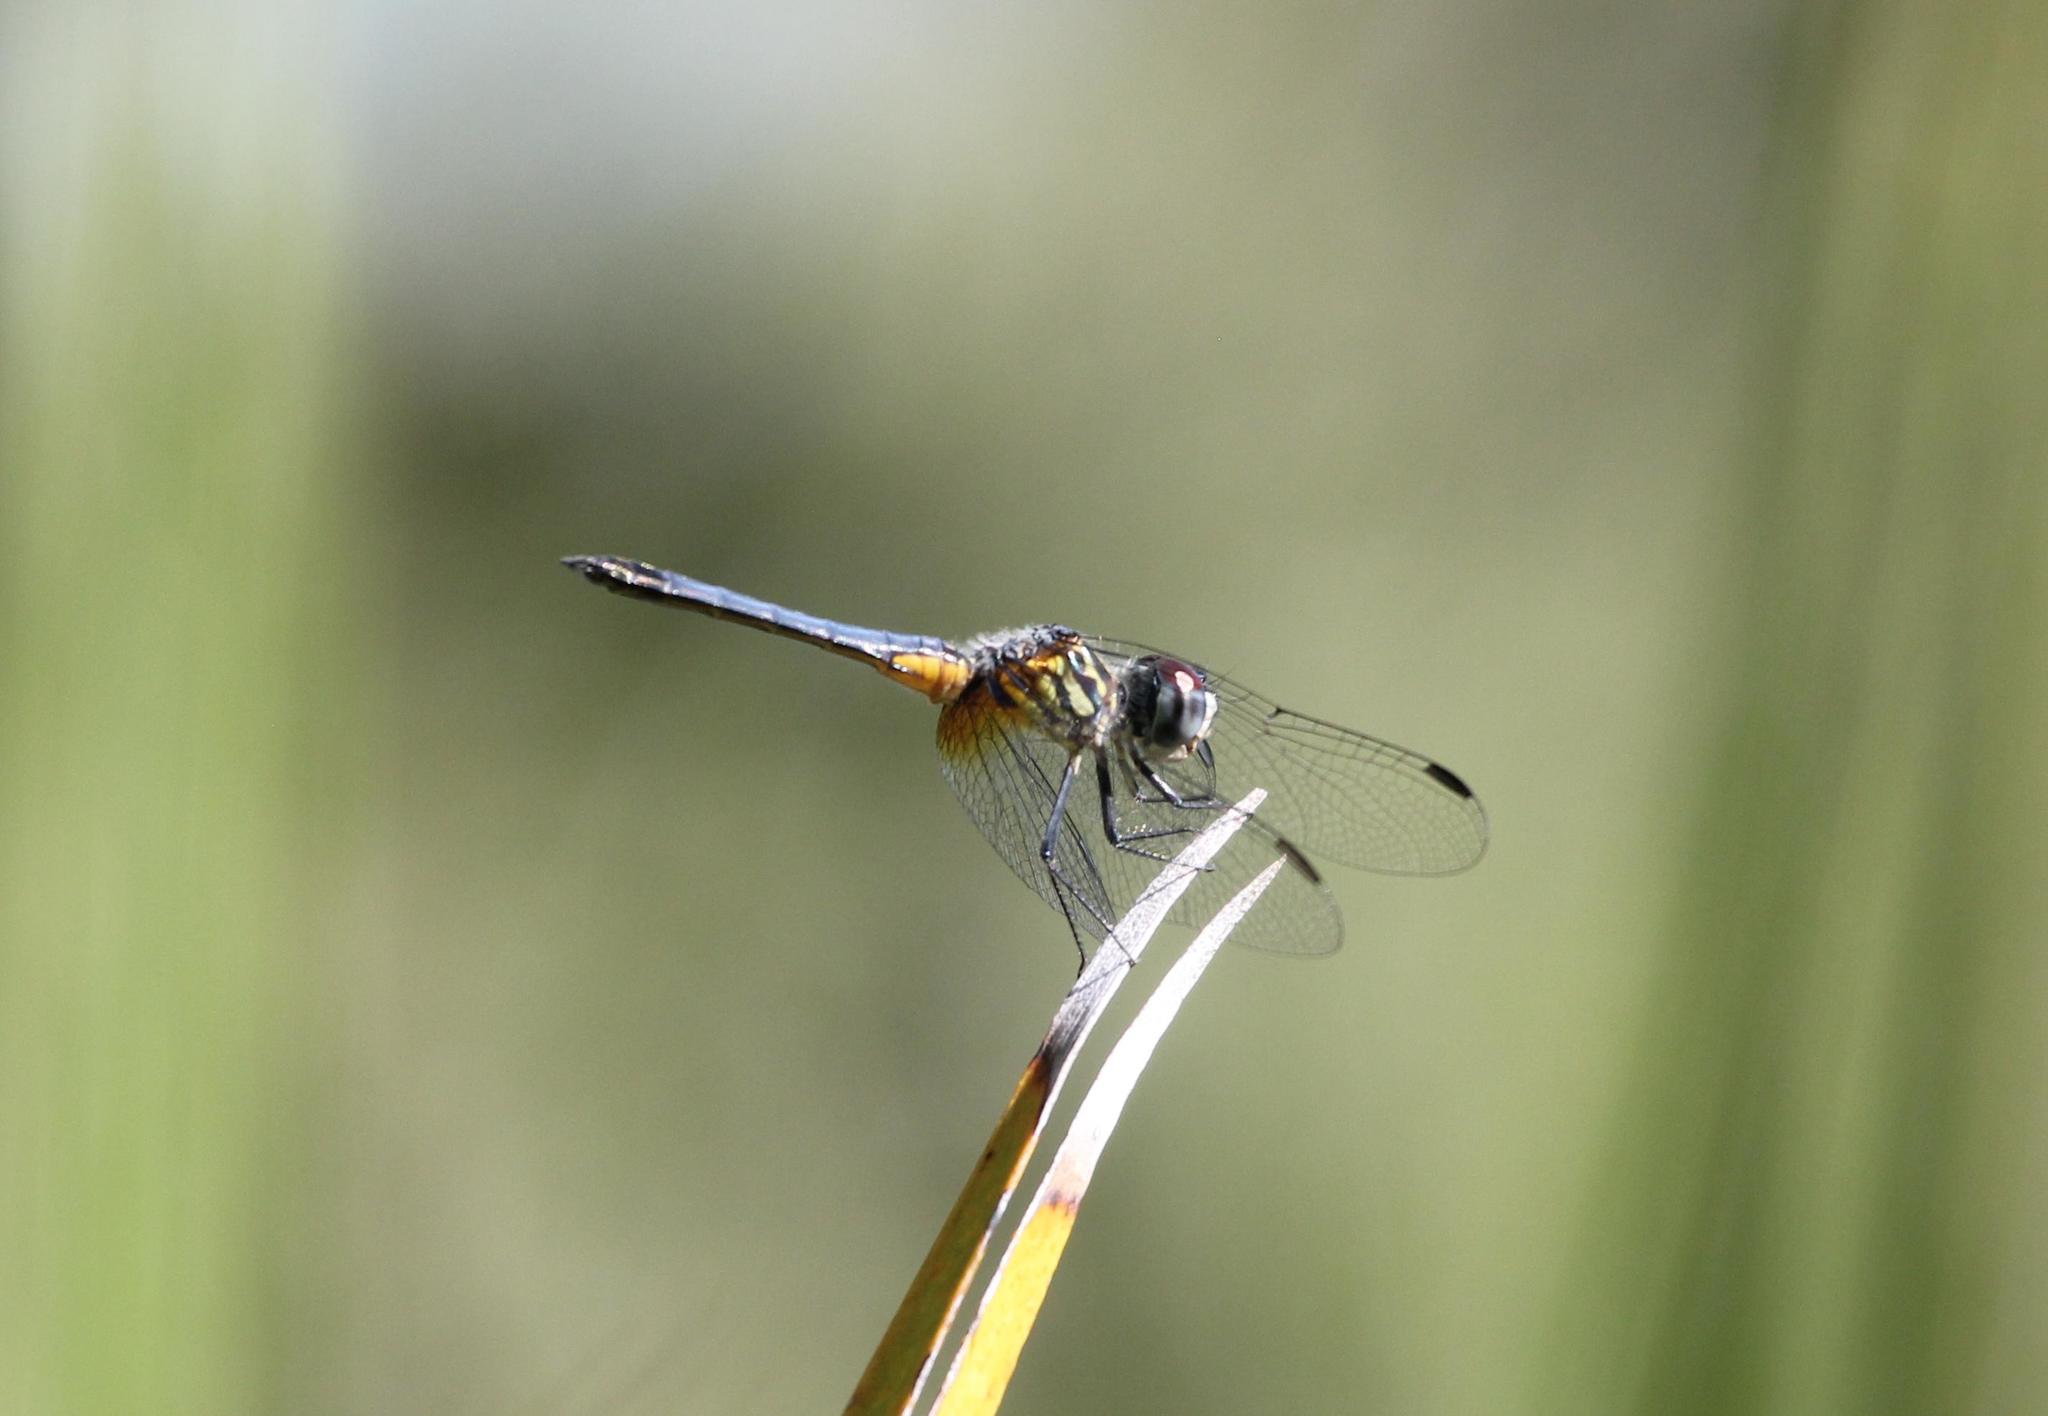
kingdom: Animalia
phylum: Arthropoda
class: Insecta
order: Odonata
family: Libellulidae
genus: Pachydiplax
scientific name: Pachydiplax longipennis
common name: Blue dasher
